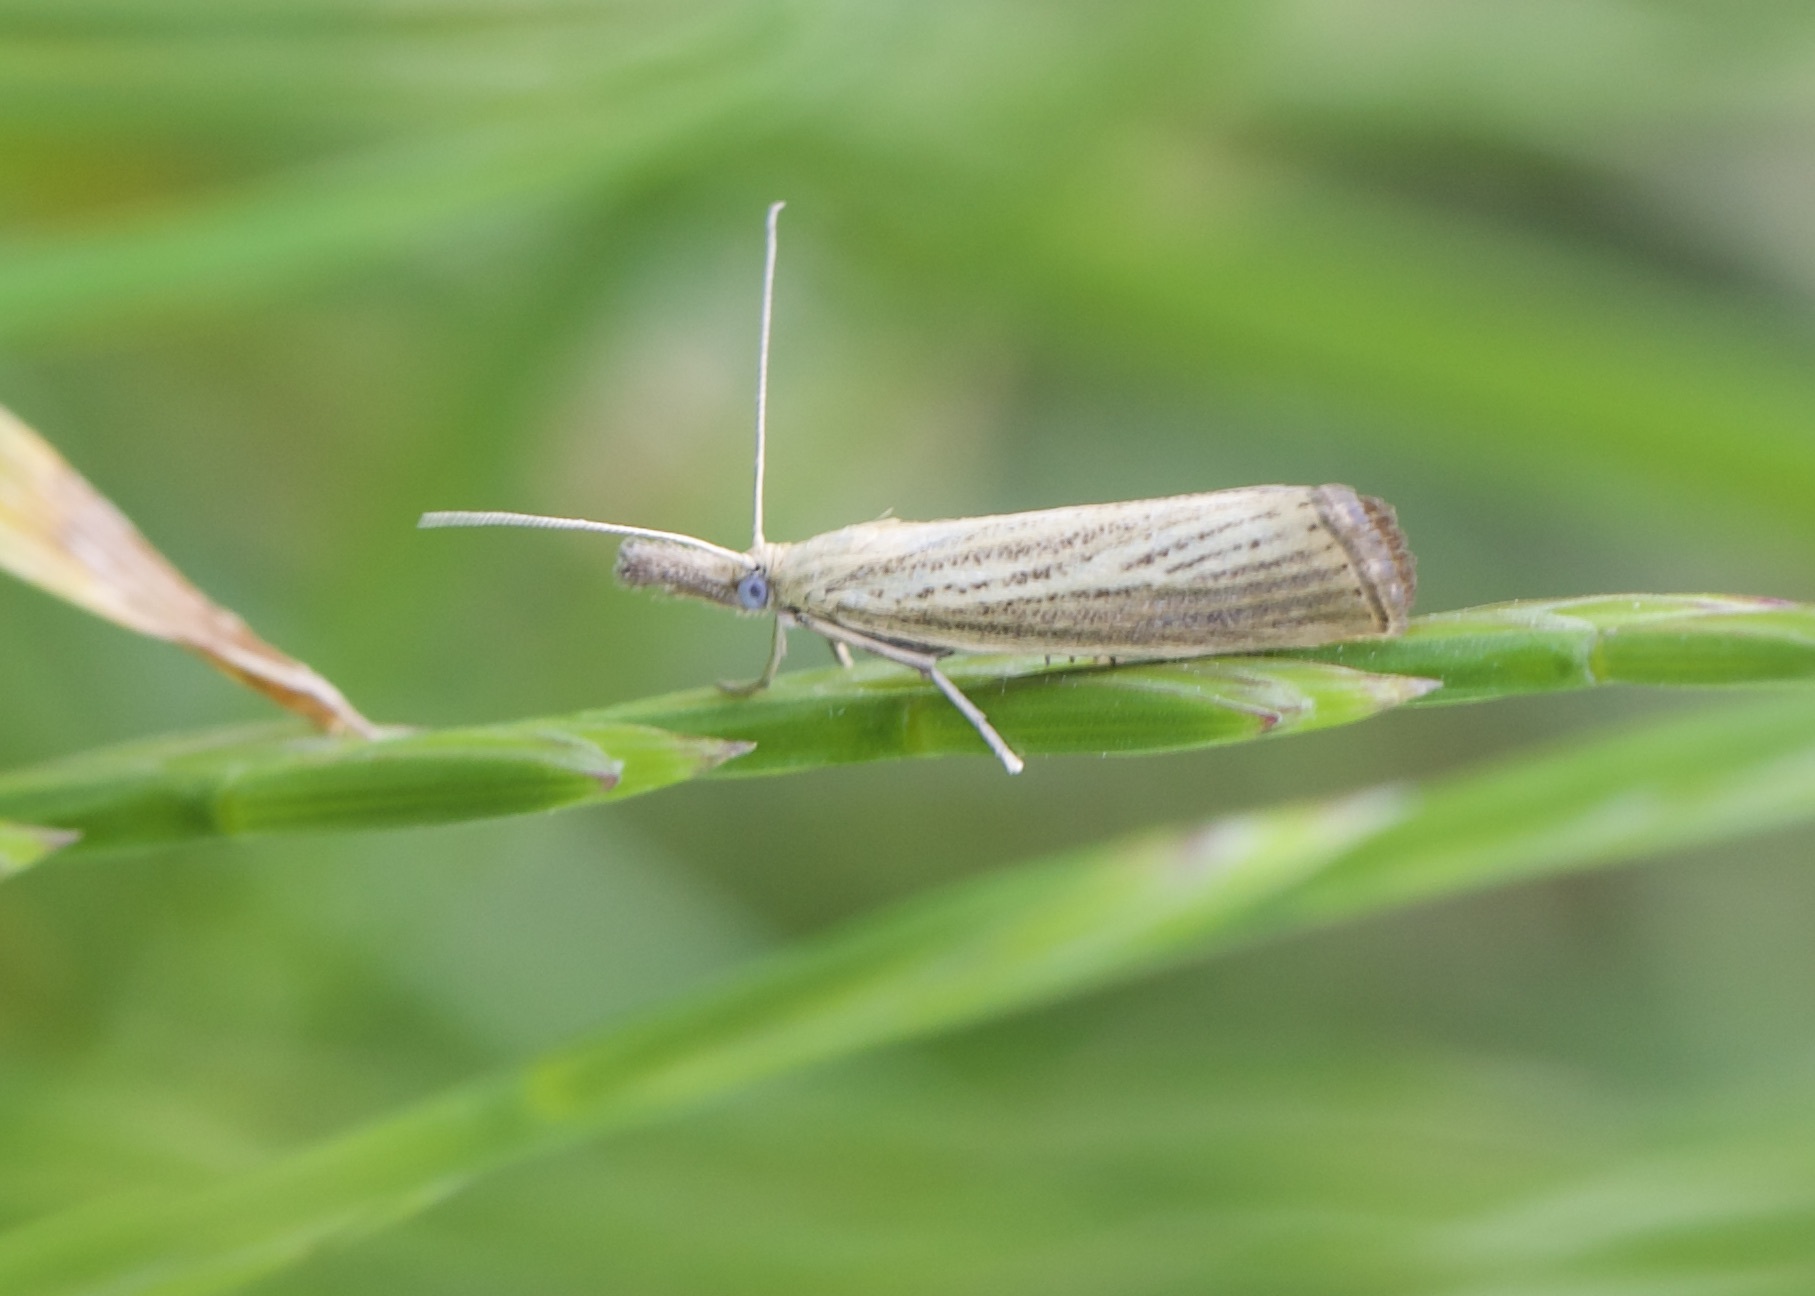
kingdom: Animalia
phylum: Arthropoda
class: Insecta
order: Lepidoptera
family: Crambidae
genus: Agriphila
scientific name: Agriphila straminella
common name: Straw grass-veneer
